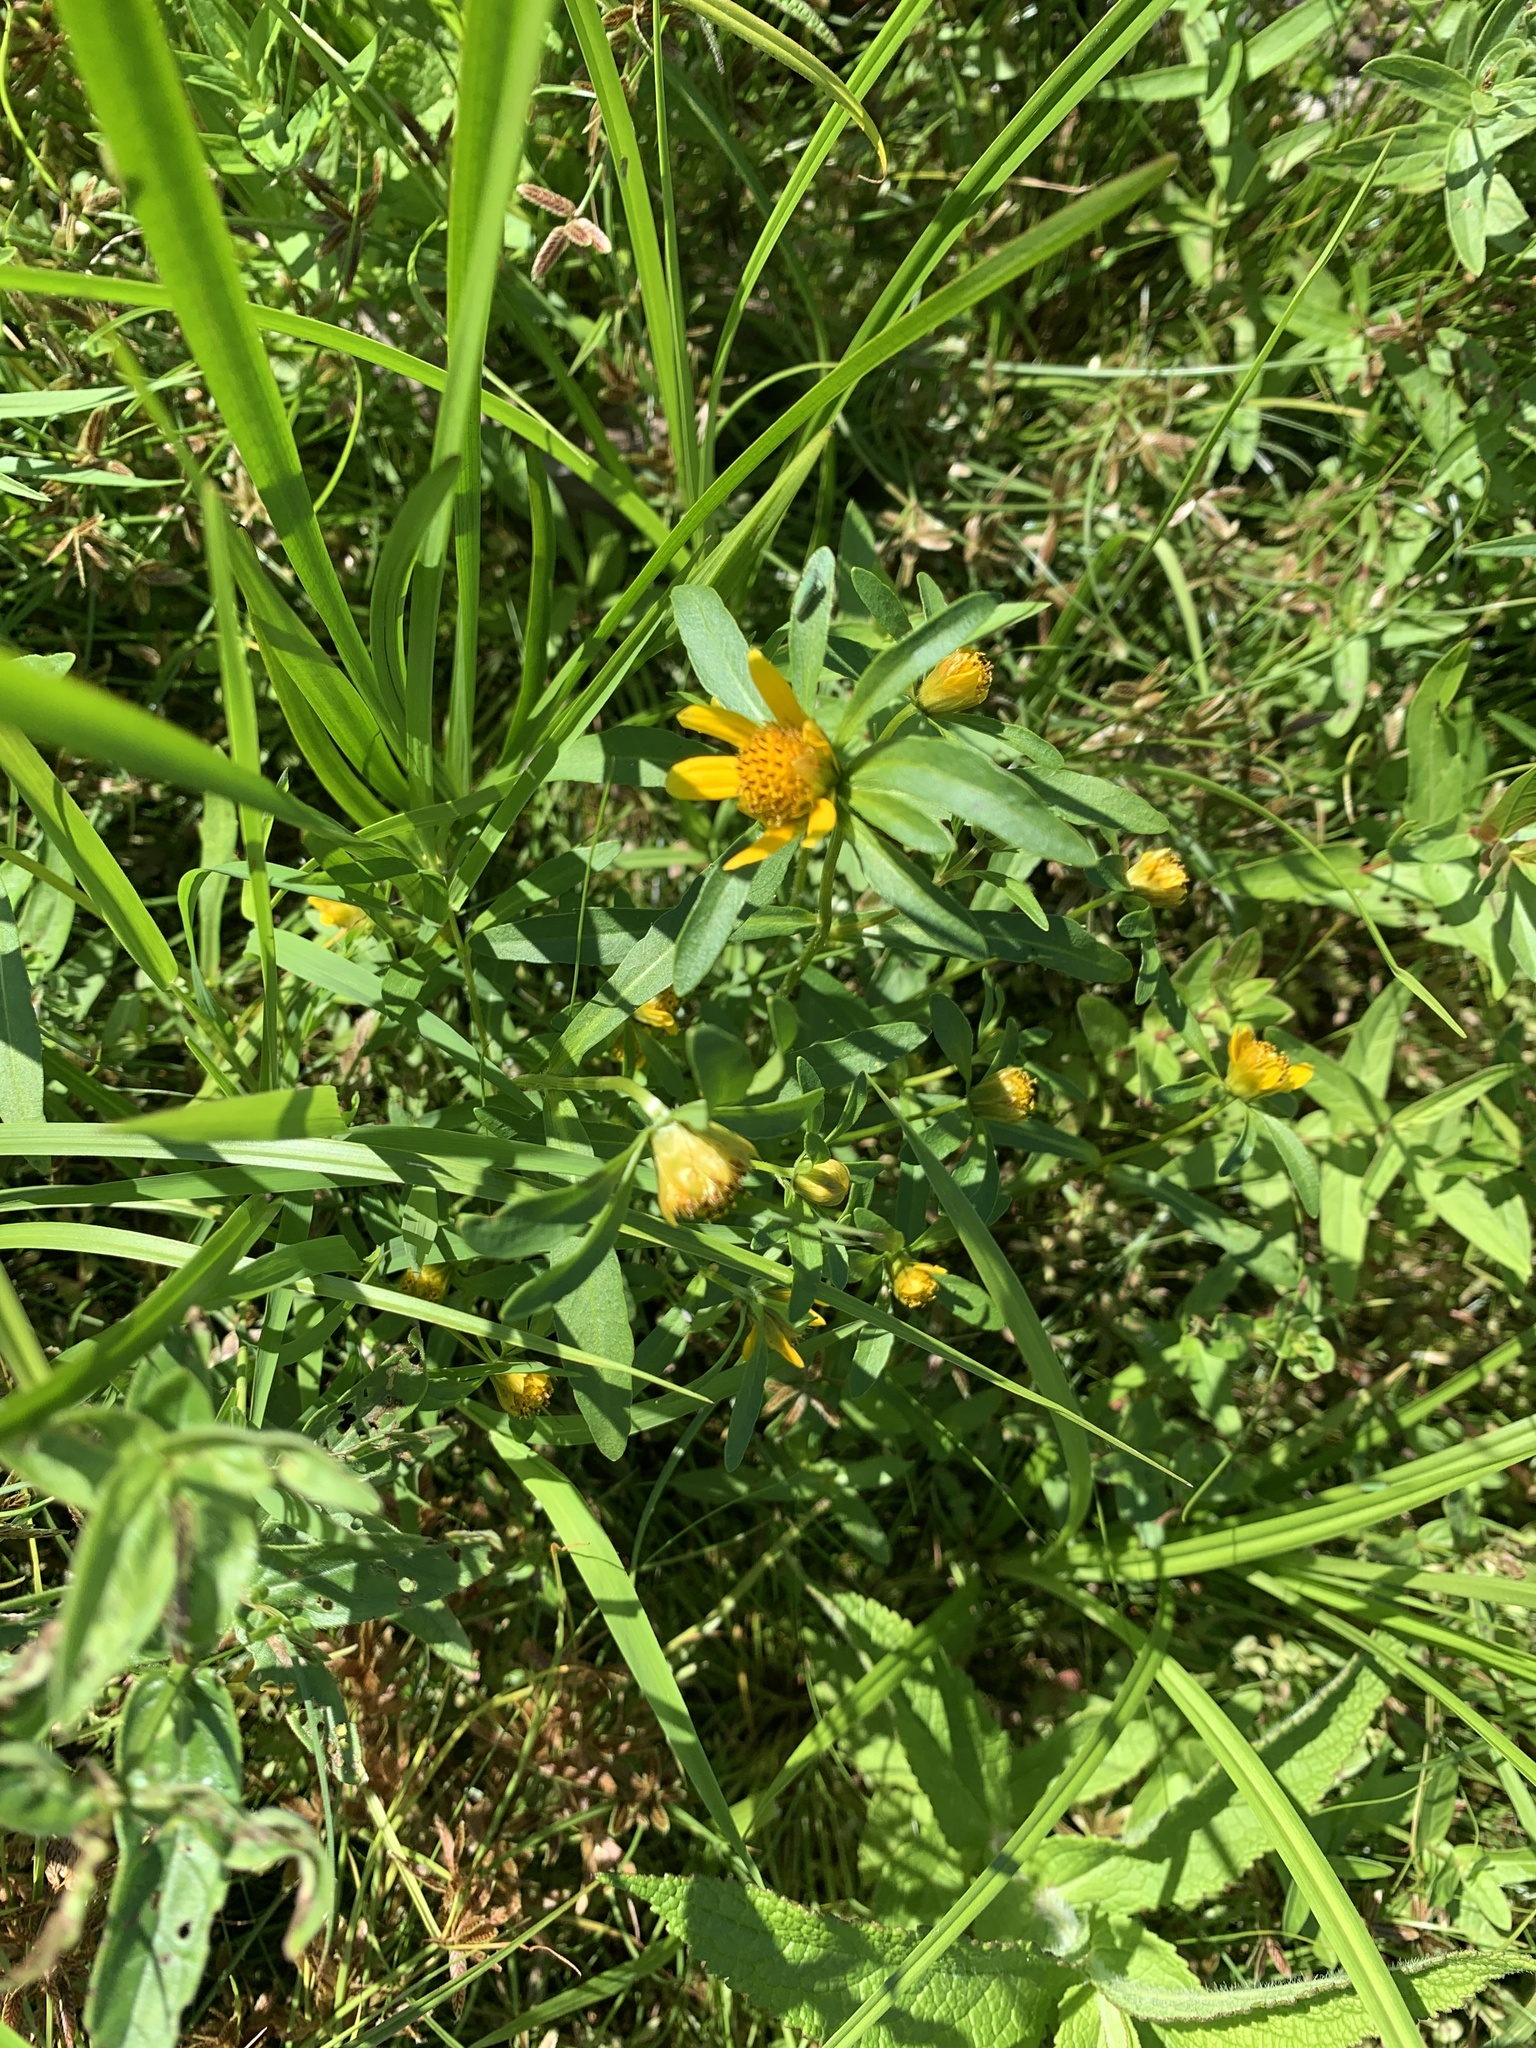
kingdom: Plantae
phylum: Tracheophyta
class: Magnoliopsida
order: Asterales
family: Asteraceae
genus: Bidens
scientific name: Bidens cernua
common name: Nodding bur-marigold
